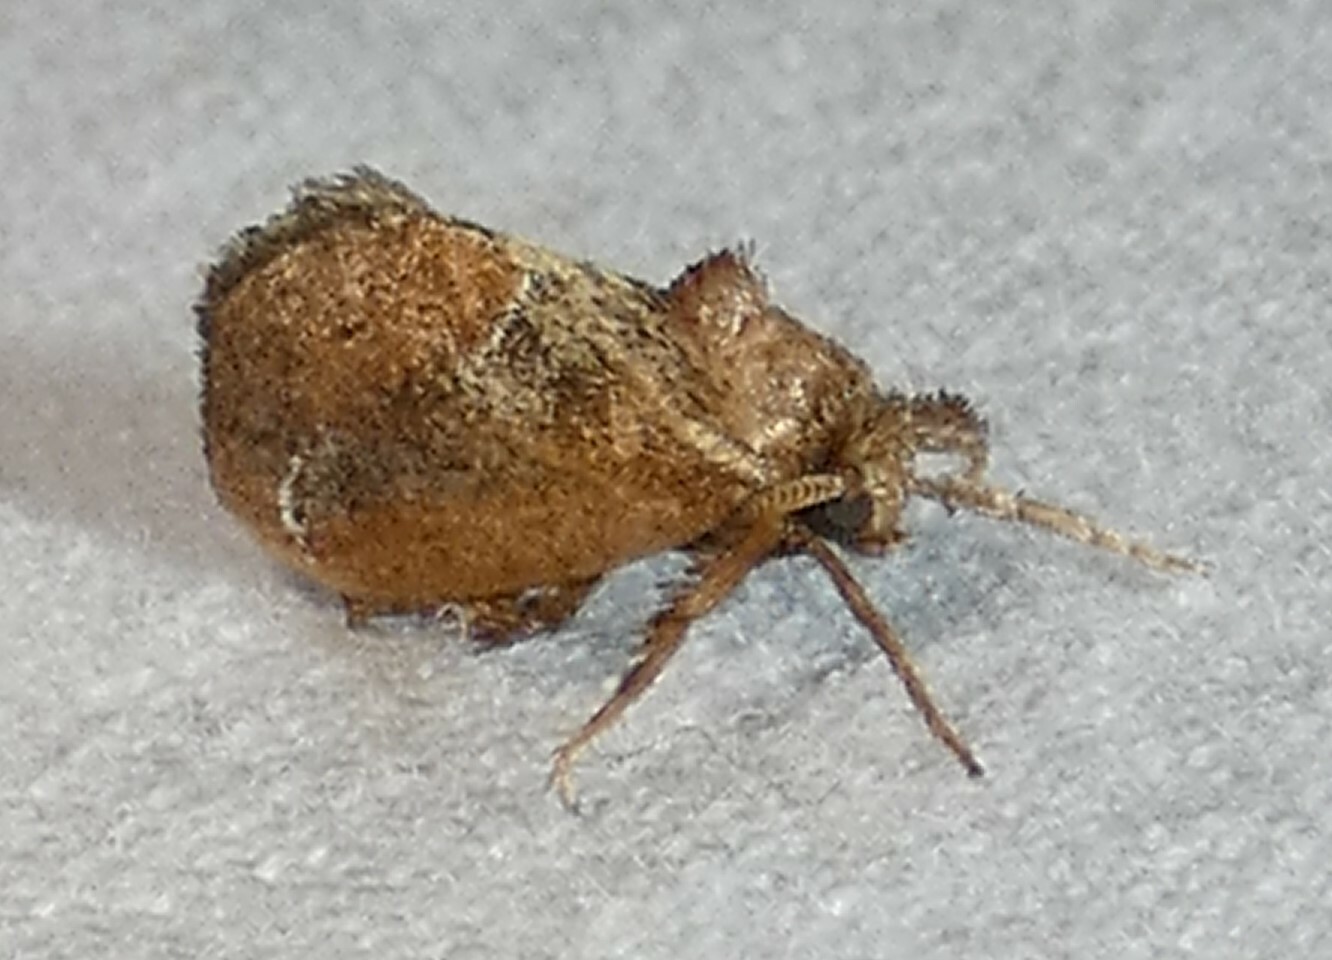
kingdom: Animalia
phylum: Arthropoda
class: Insecta
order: Lepidoptera
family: Limacodidae
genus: Adoneta
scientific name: Adoneta spinuloides
